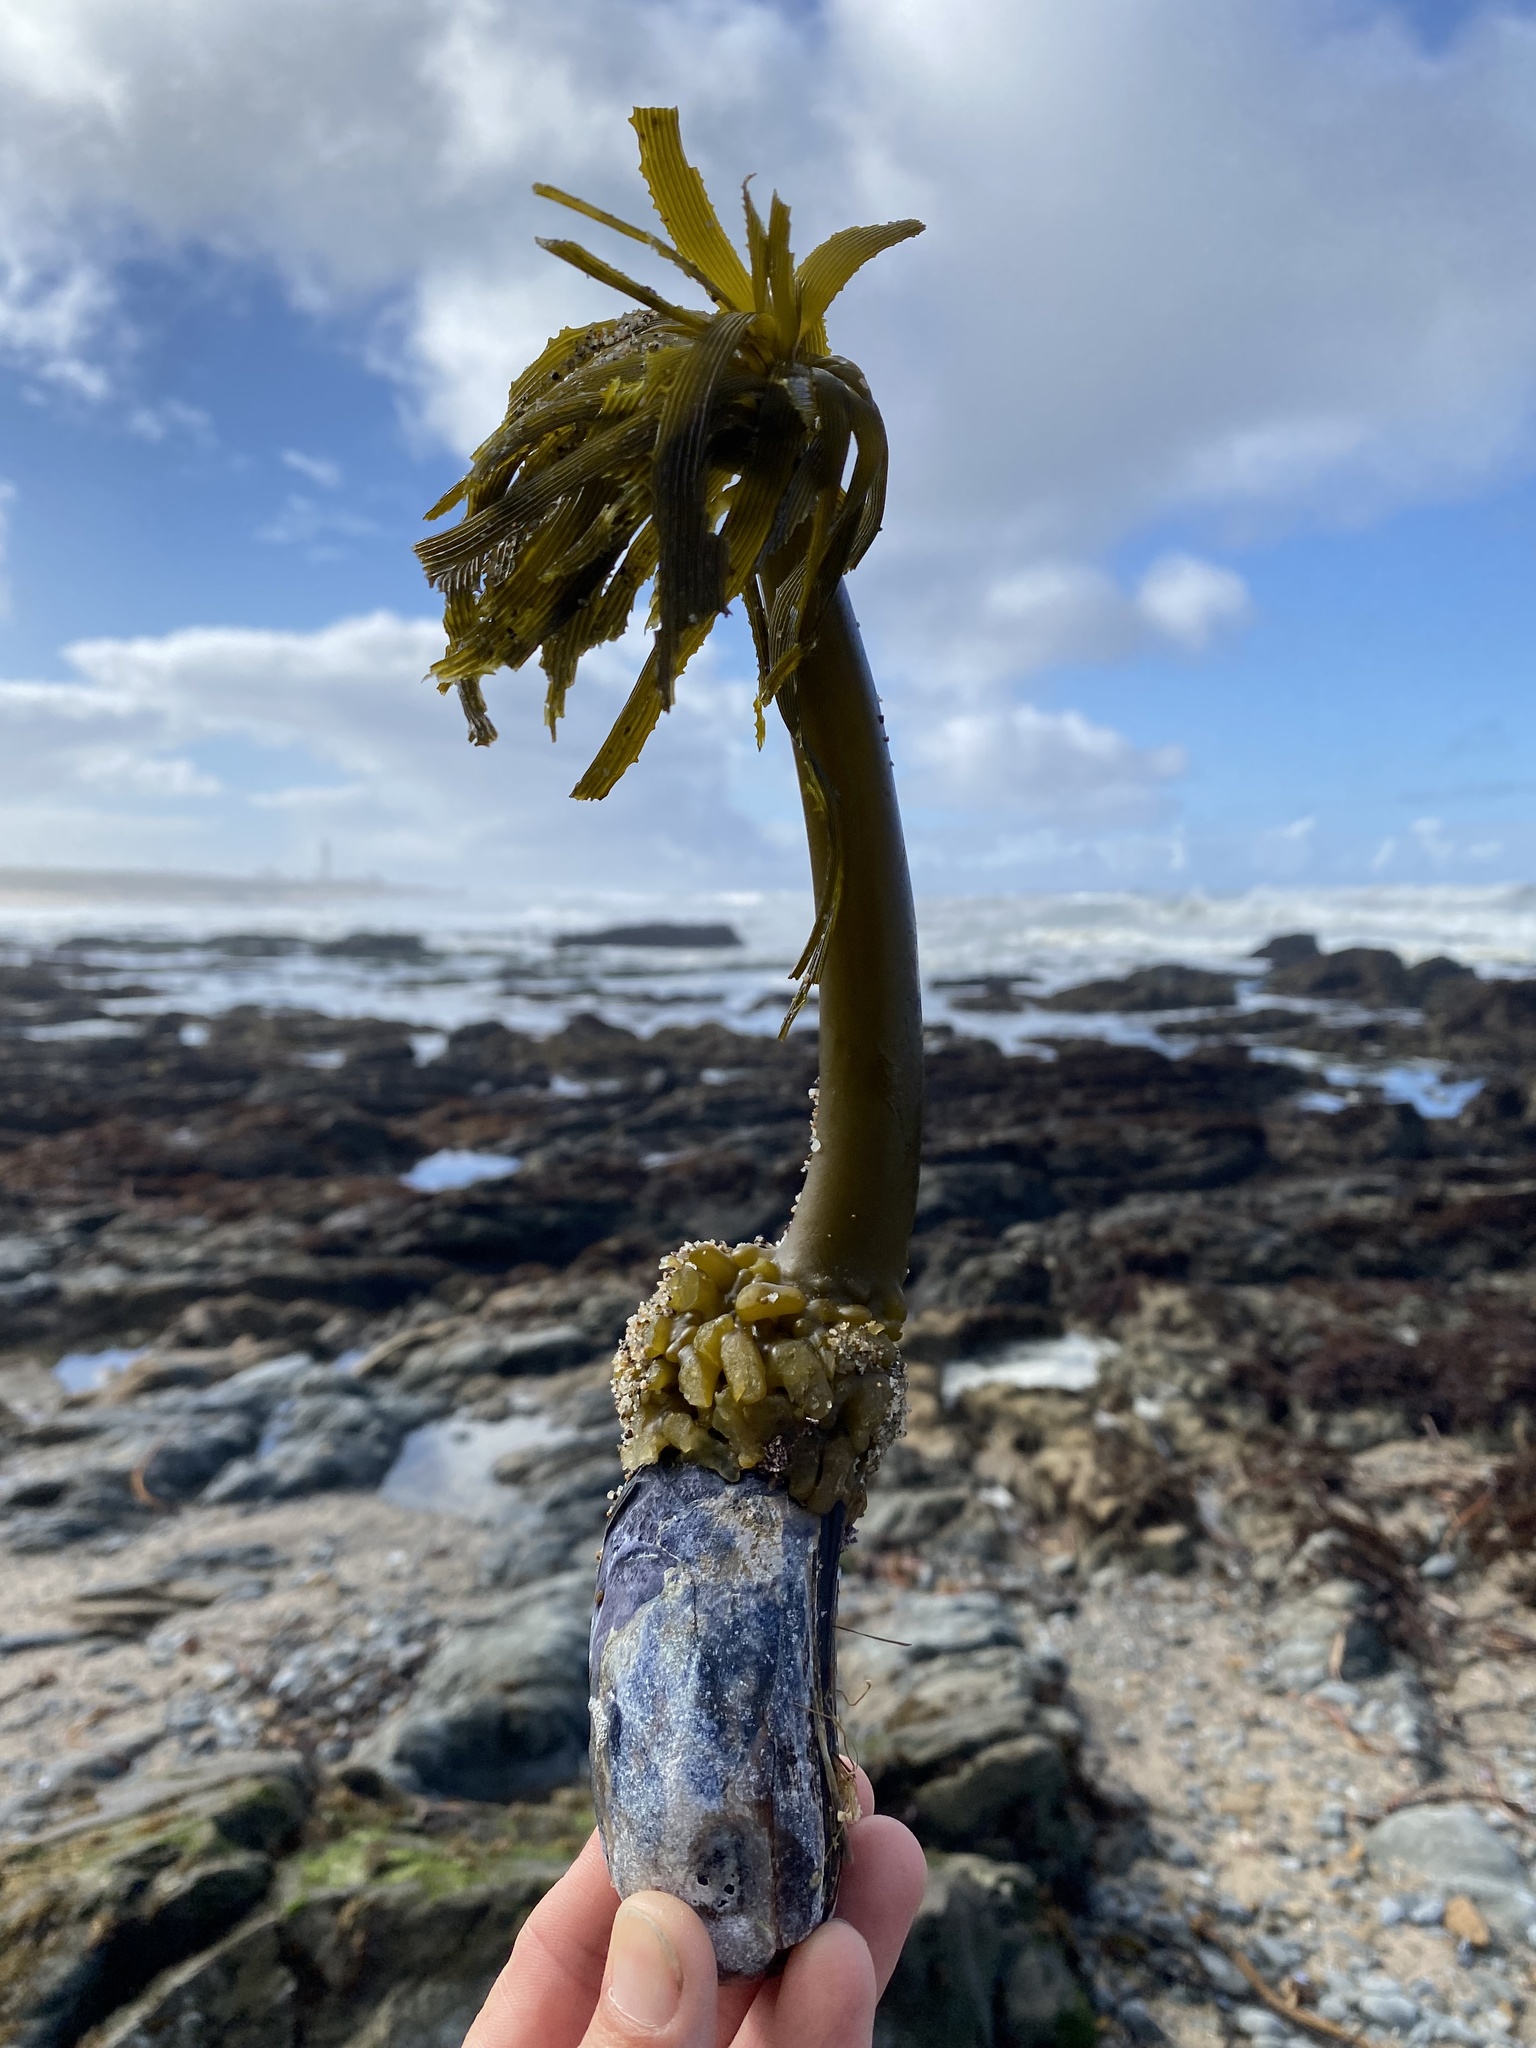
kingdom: Chromista
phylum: Ochrophyta
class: Phaeophyceae
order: Laminariales
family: Laminariaceae
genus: Postelsia
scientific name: Postelsia palmiformis
